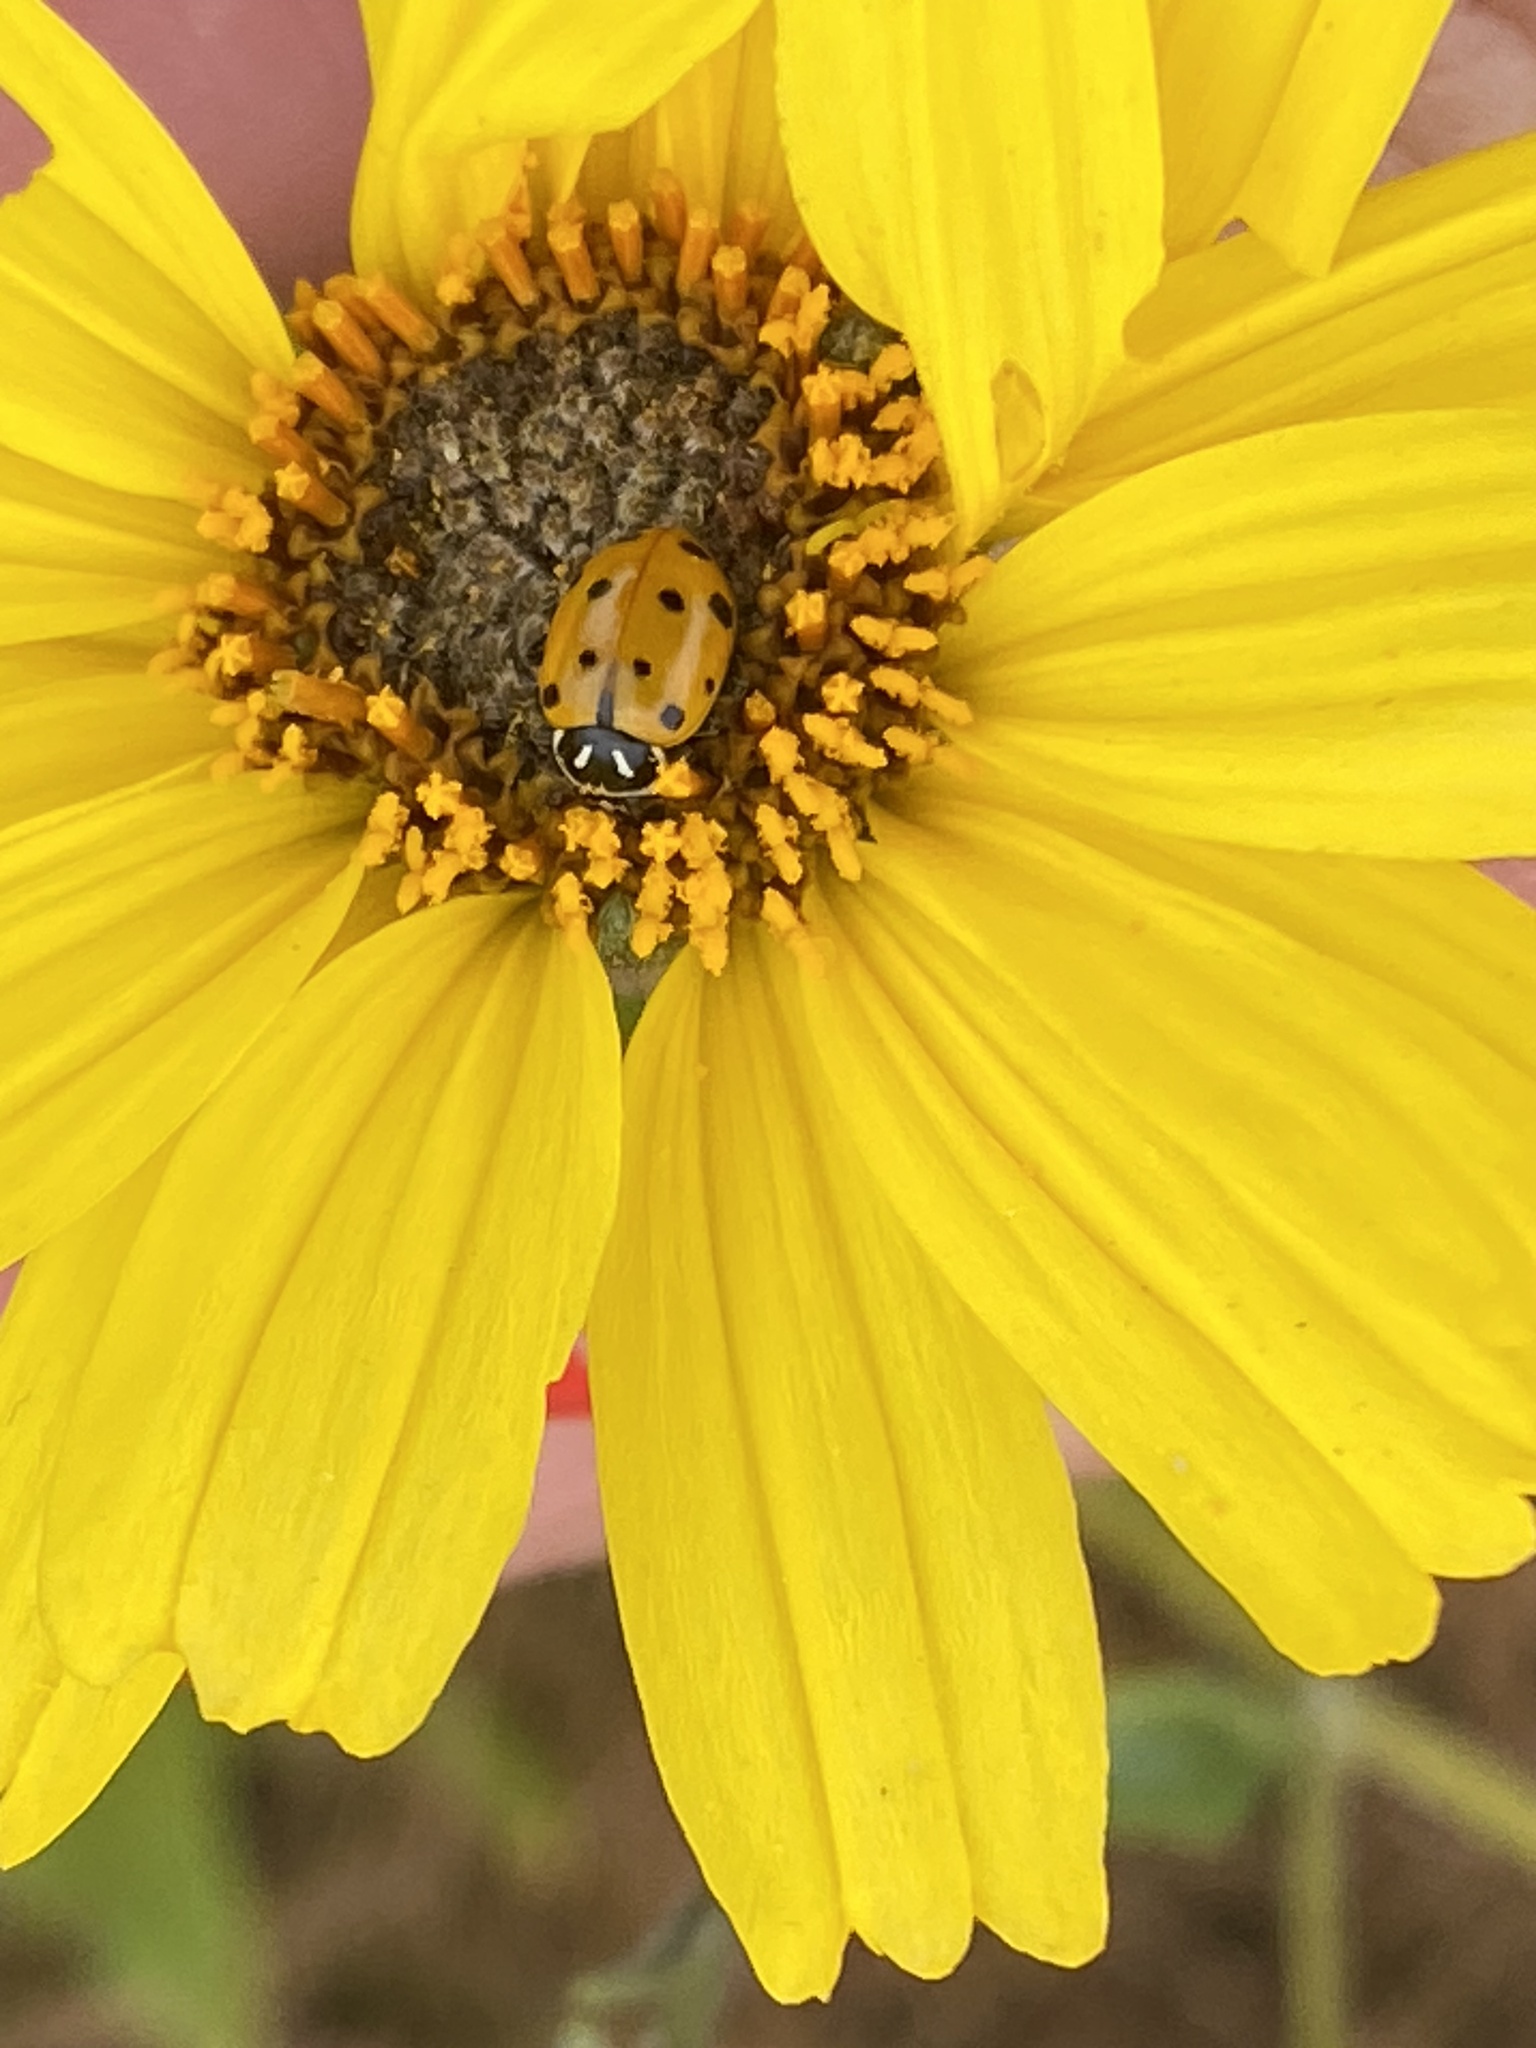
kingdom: Animalia
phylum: Arthropoda
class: Insecta
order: Coleoptera
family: Coccinellidae
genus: Hippodamia
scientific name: Hippodamia convergens
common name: Convergent lady beetle
